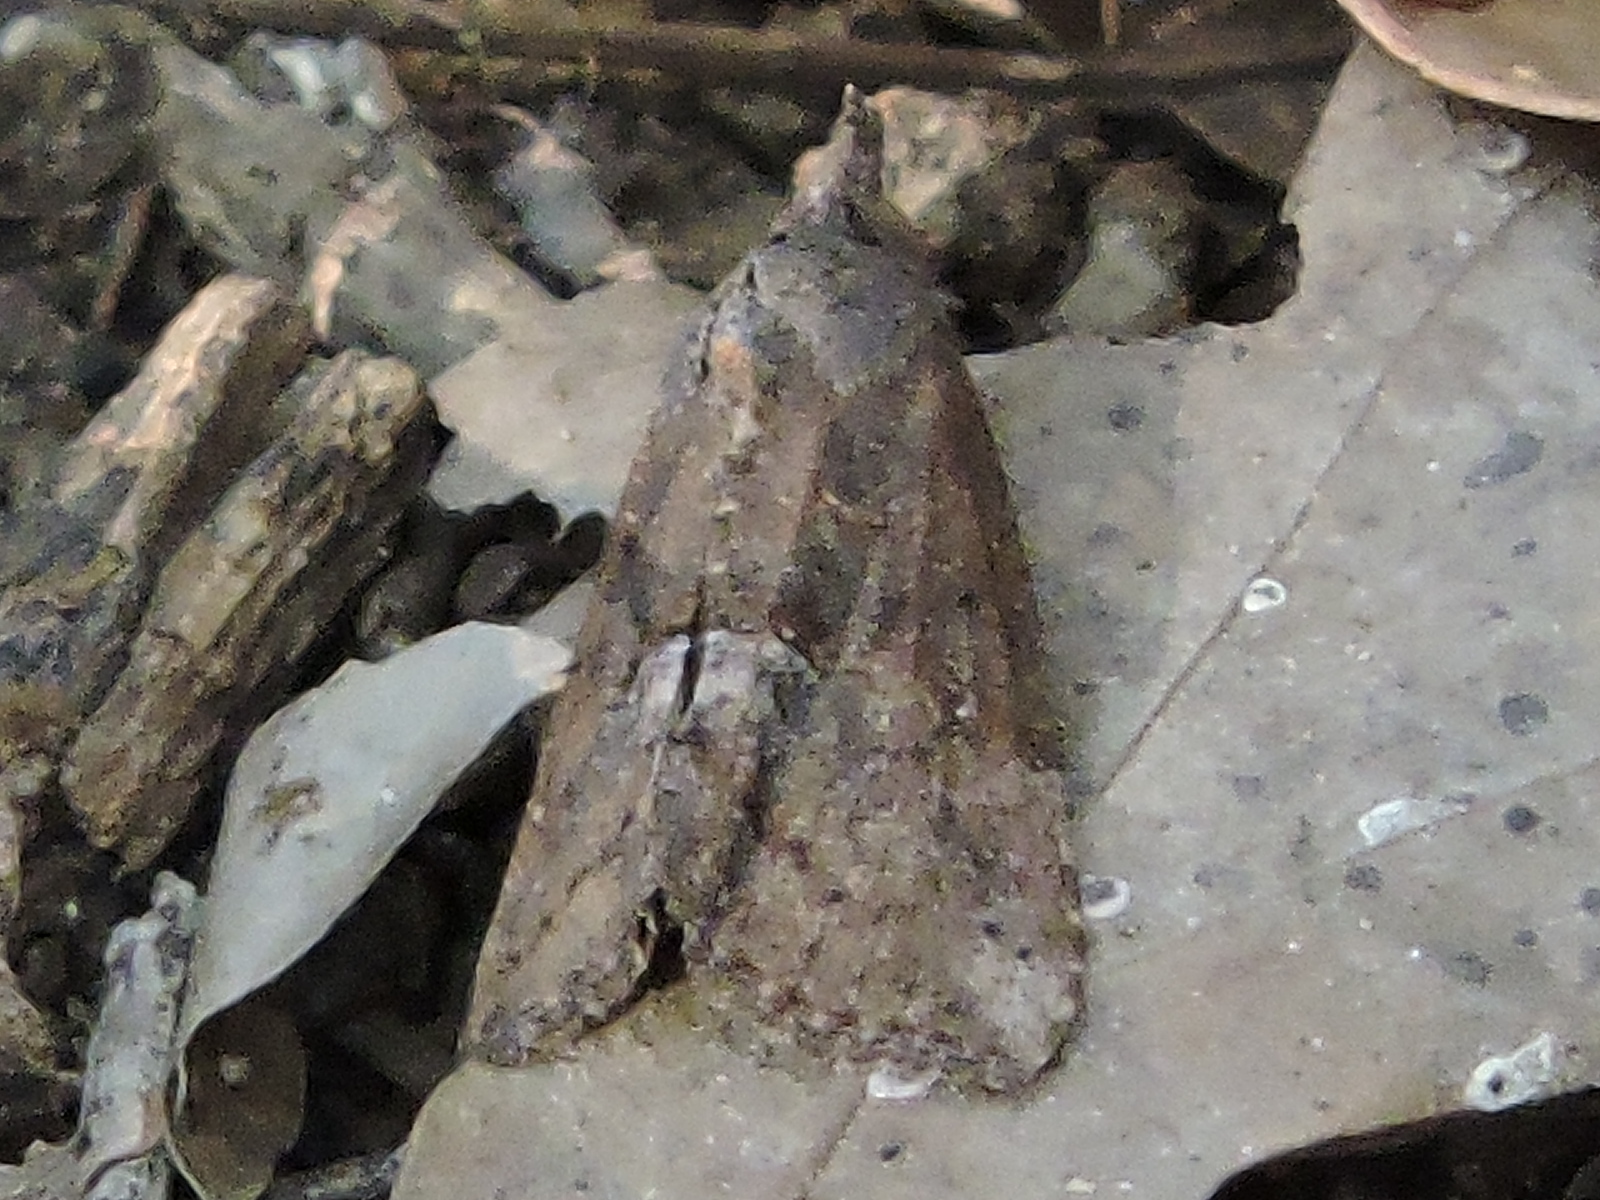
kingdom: Animalia
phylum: Arthropoda
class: Insecta
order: Lepidoptera
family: Erebidae
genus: Hypena
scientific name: Hypena scabra
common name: Green cloverworm
